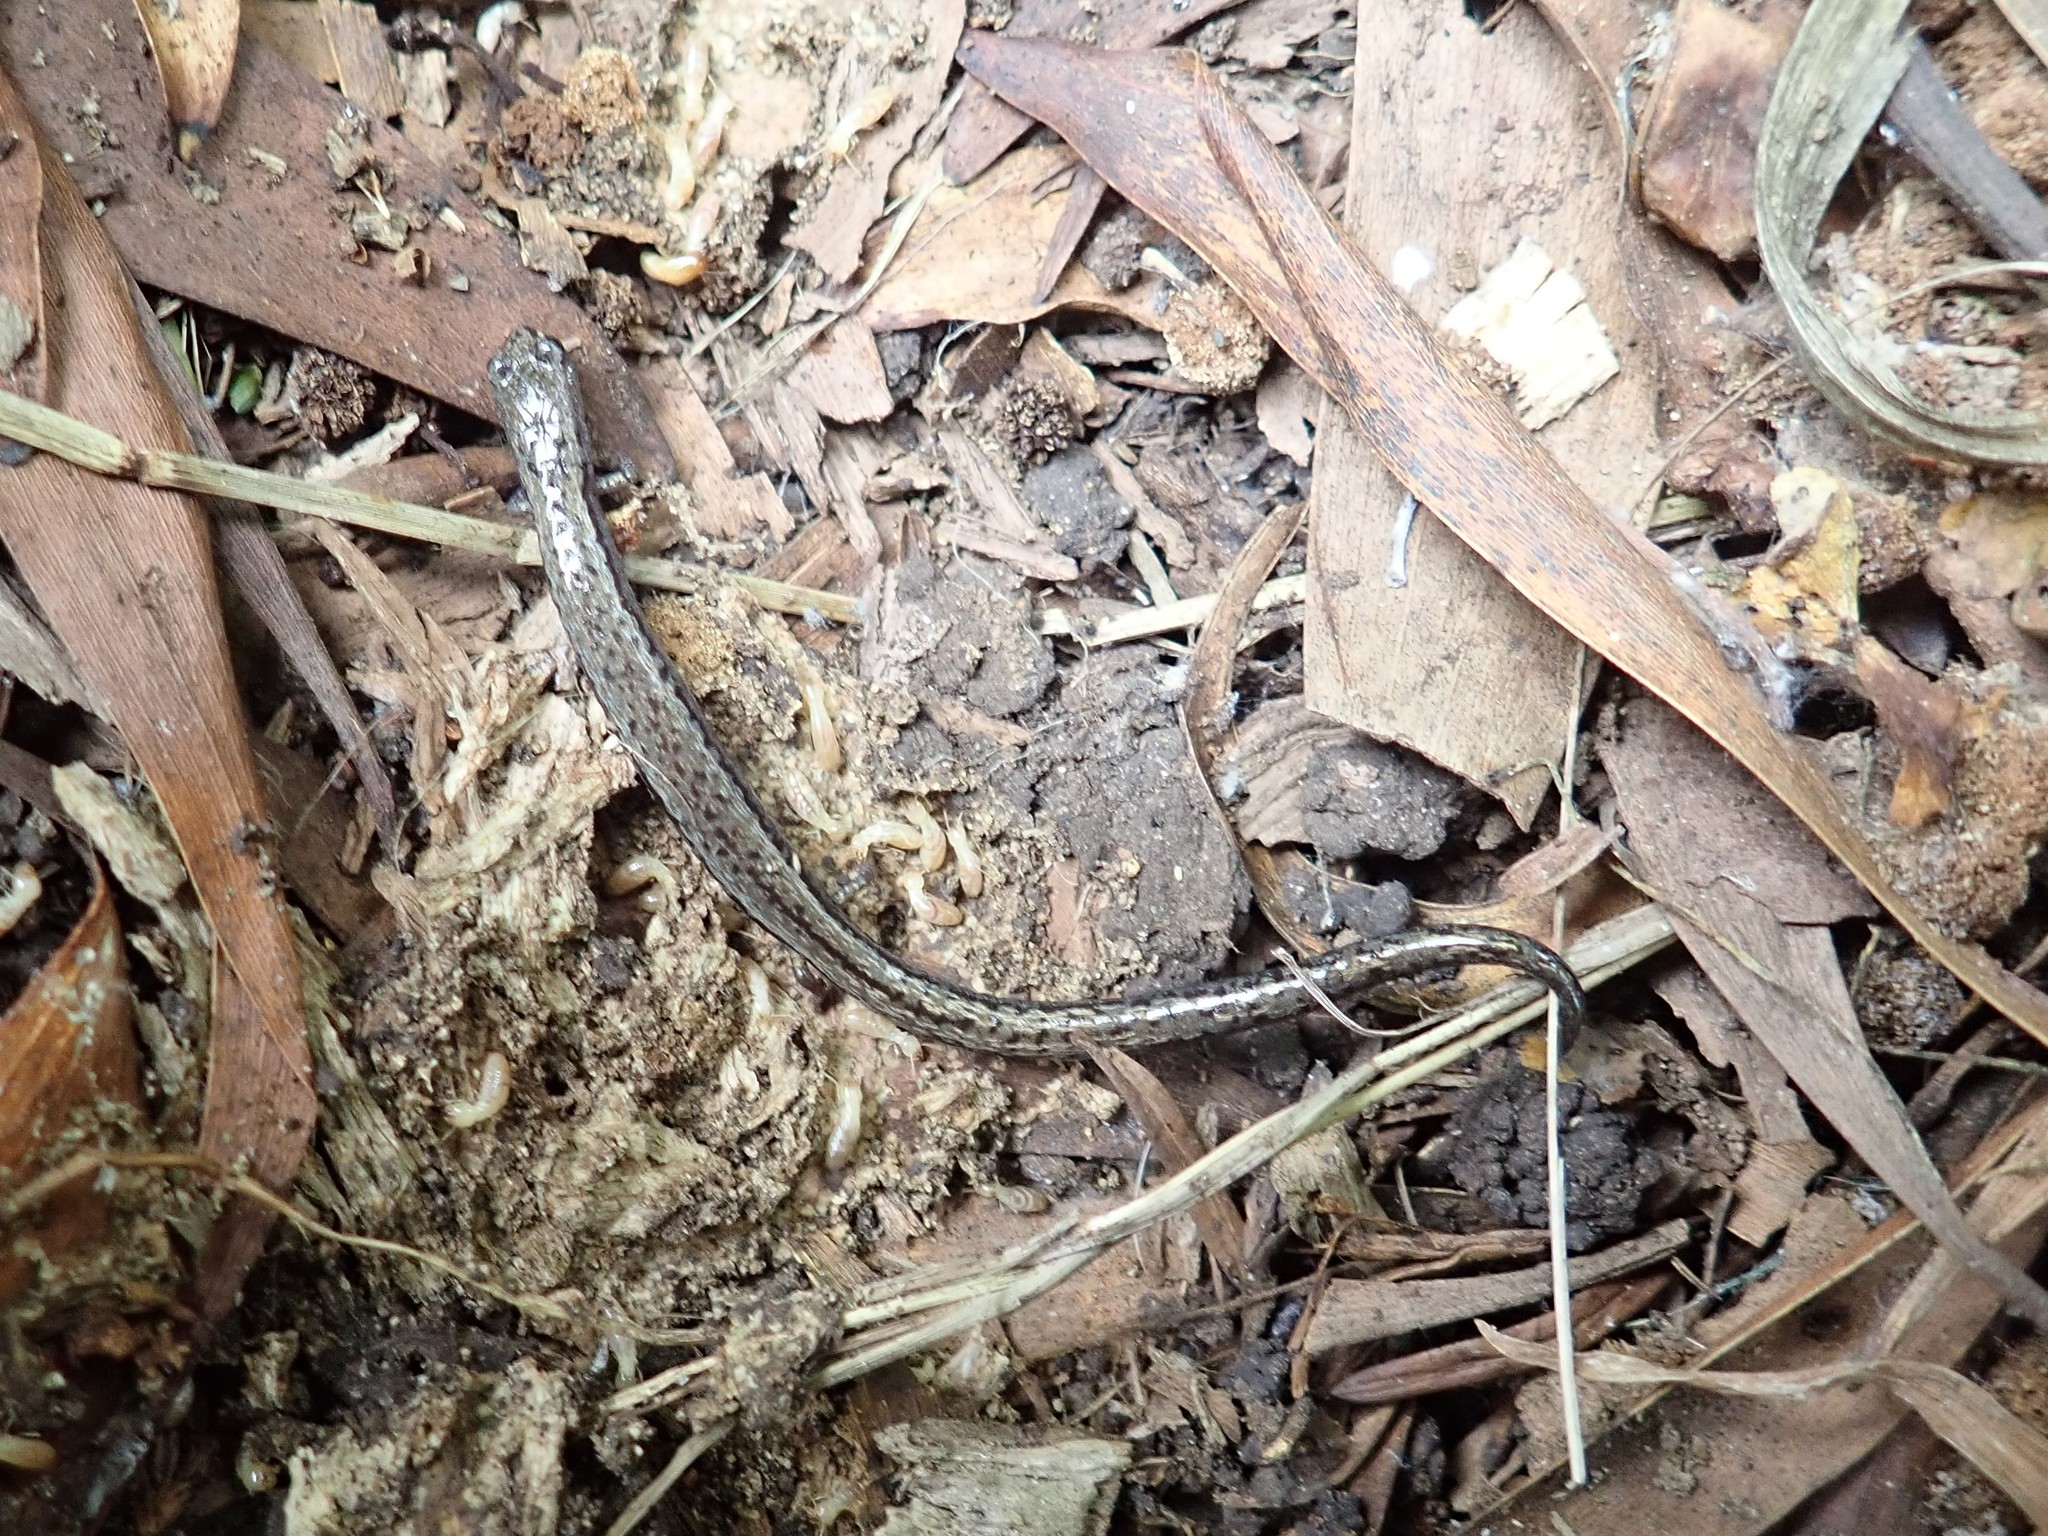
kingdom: Animalia
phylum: Chordata
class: Amphibia
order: Caudata
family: Plethodontidae
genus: Batrachoseps
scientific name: Batrachoseps attenuatus
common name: California slender salamander
